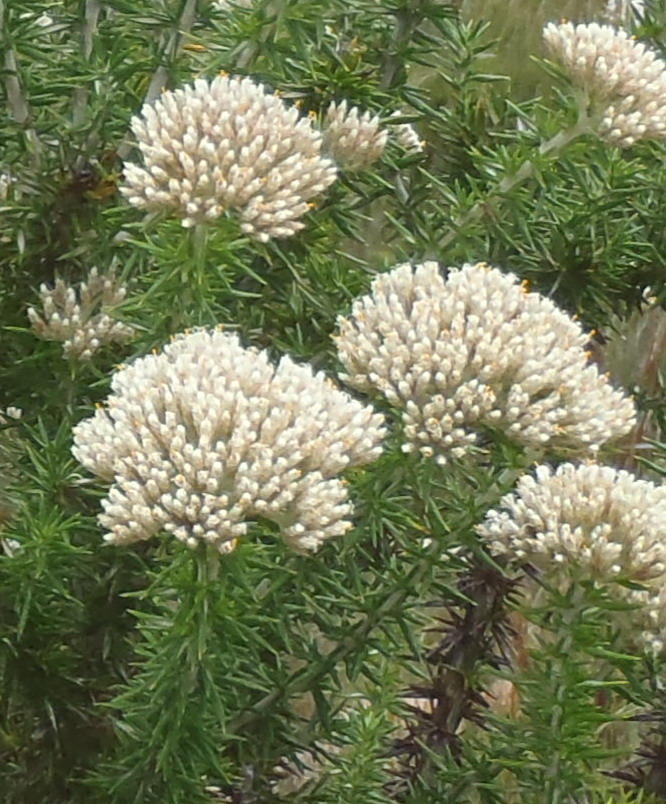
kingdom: Plantae
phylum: Tracheophyta
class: Magnoliopsida
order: Asterales
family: Asteraceae
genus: Metalasia
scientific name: Metalasia acuta
